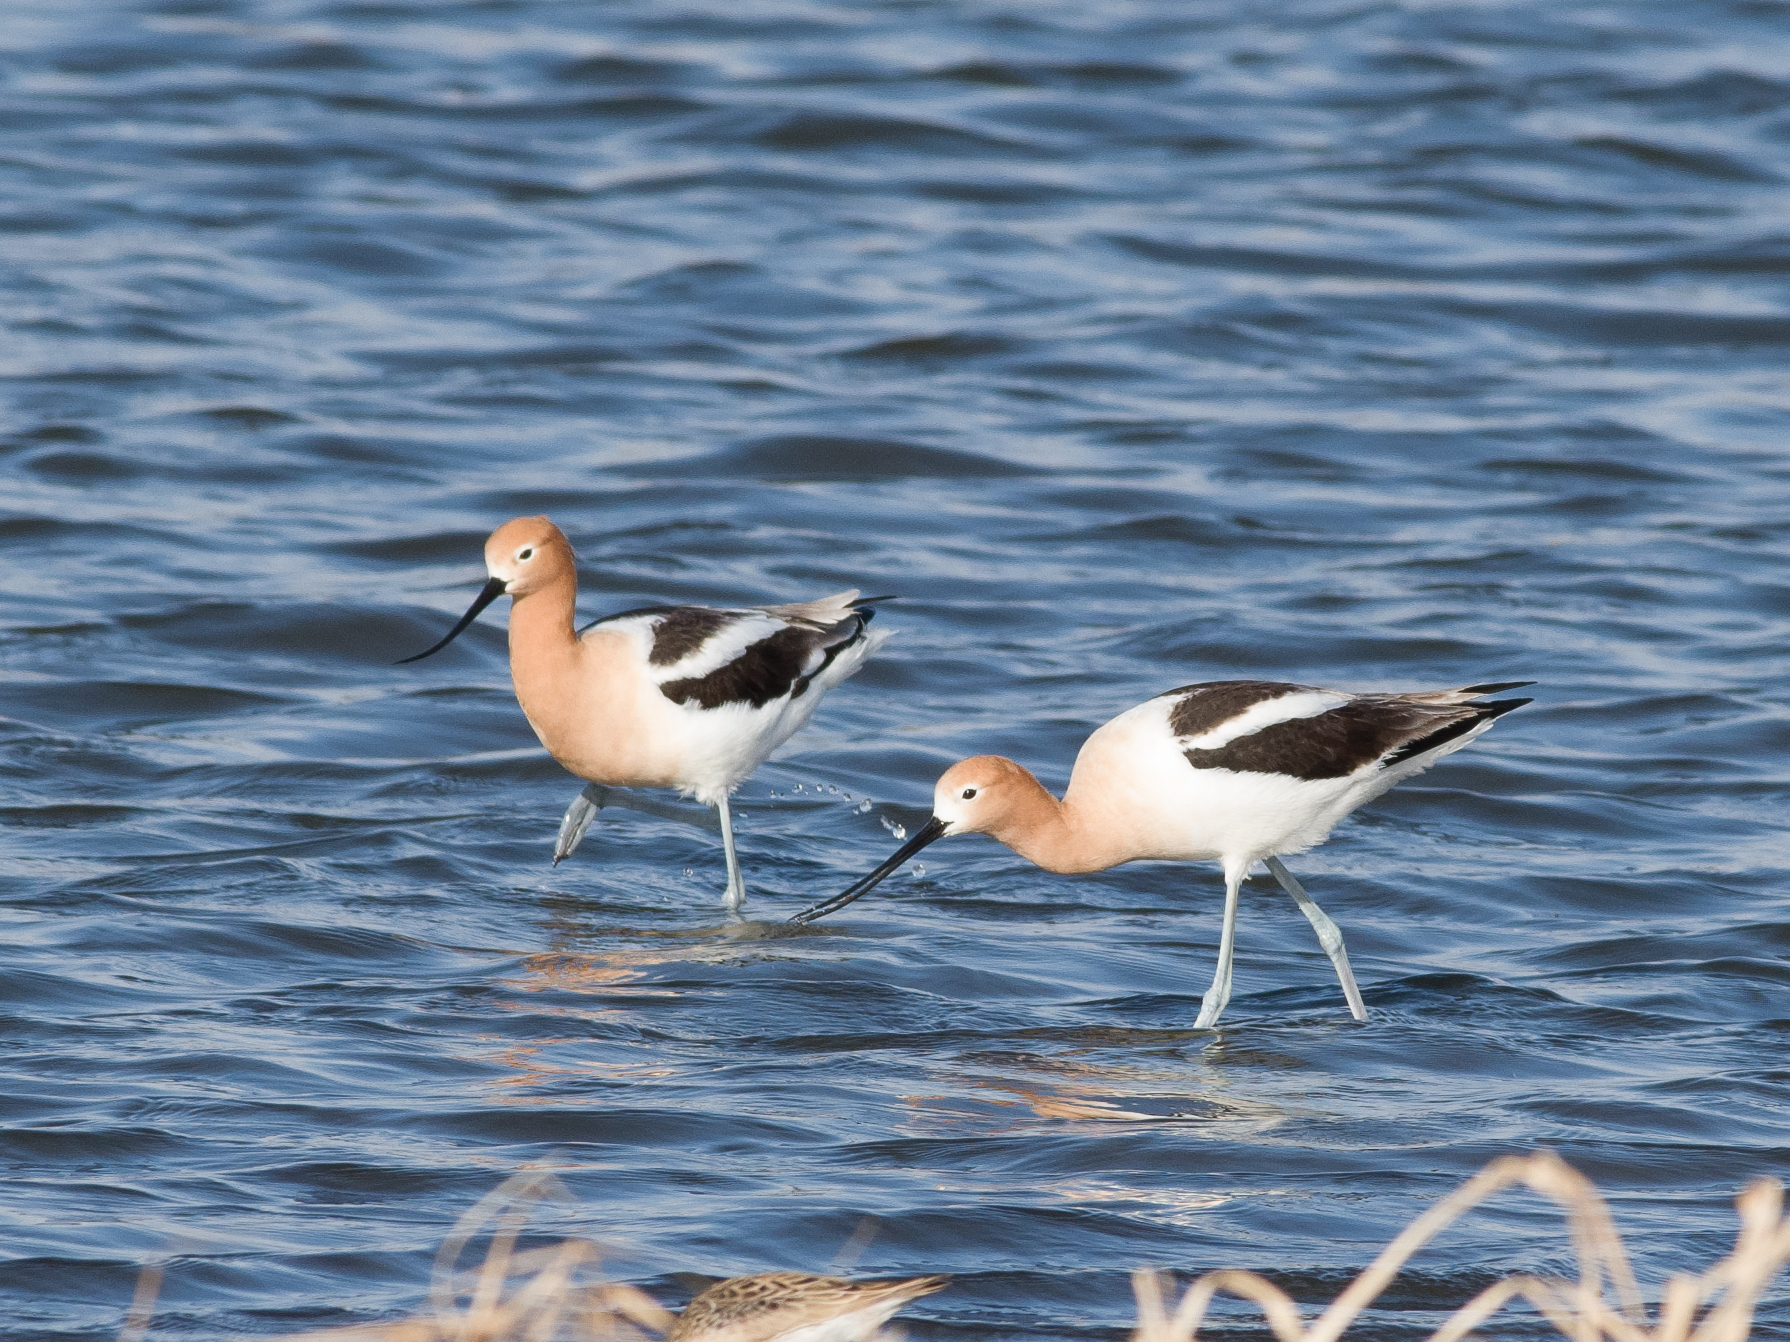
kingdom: Animalia
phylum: Chordata
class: Aves
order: Charadriiformes
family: Recurvirostridae
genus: Recurvirostra
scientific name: Recurvirostra americana
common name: American avocet
